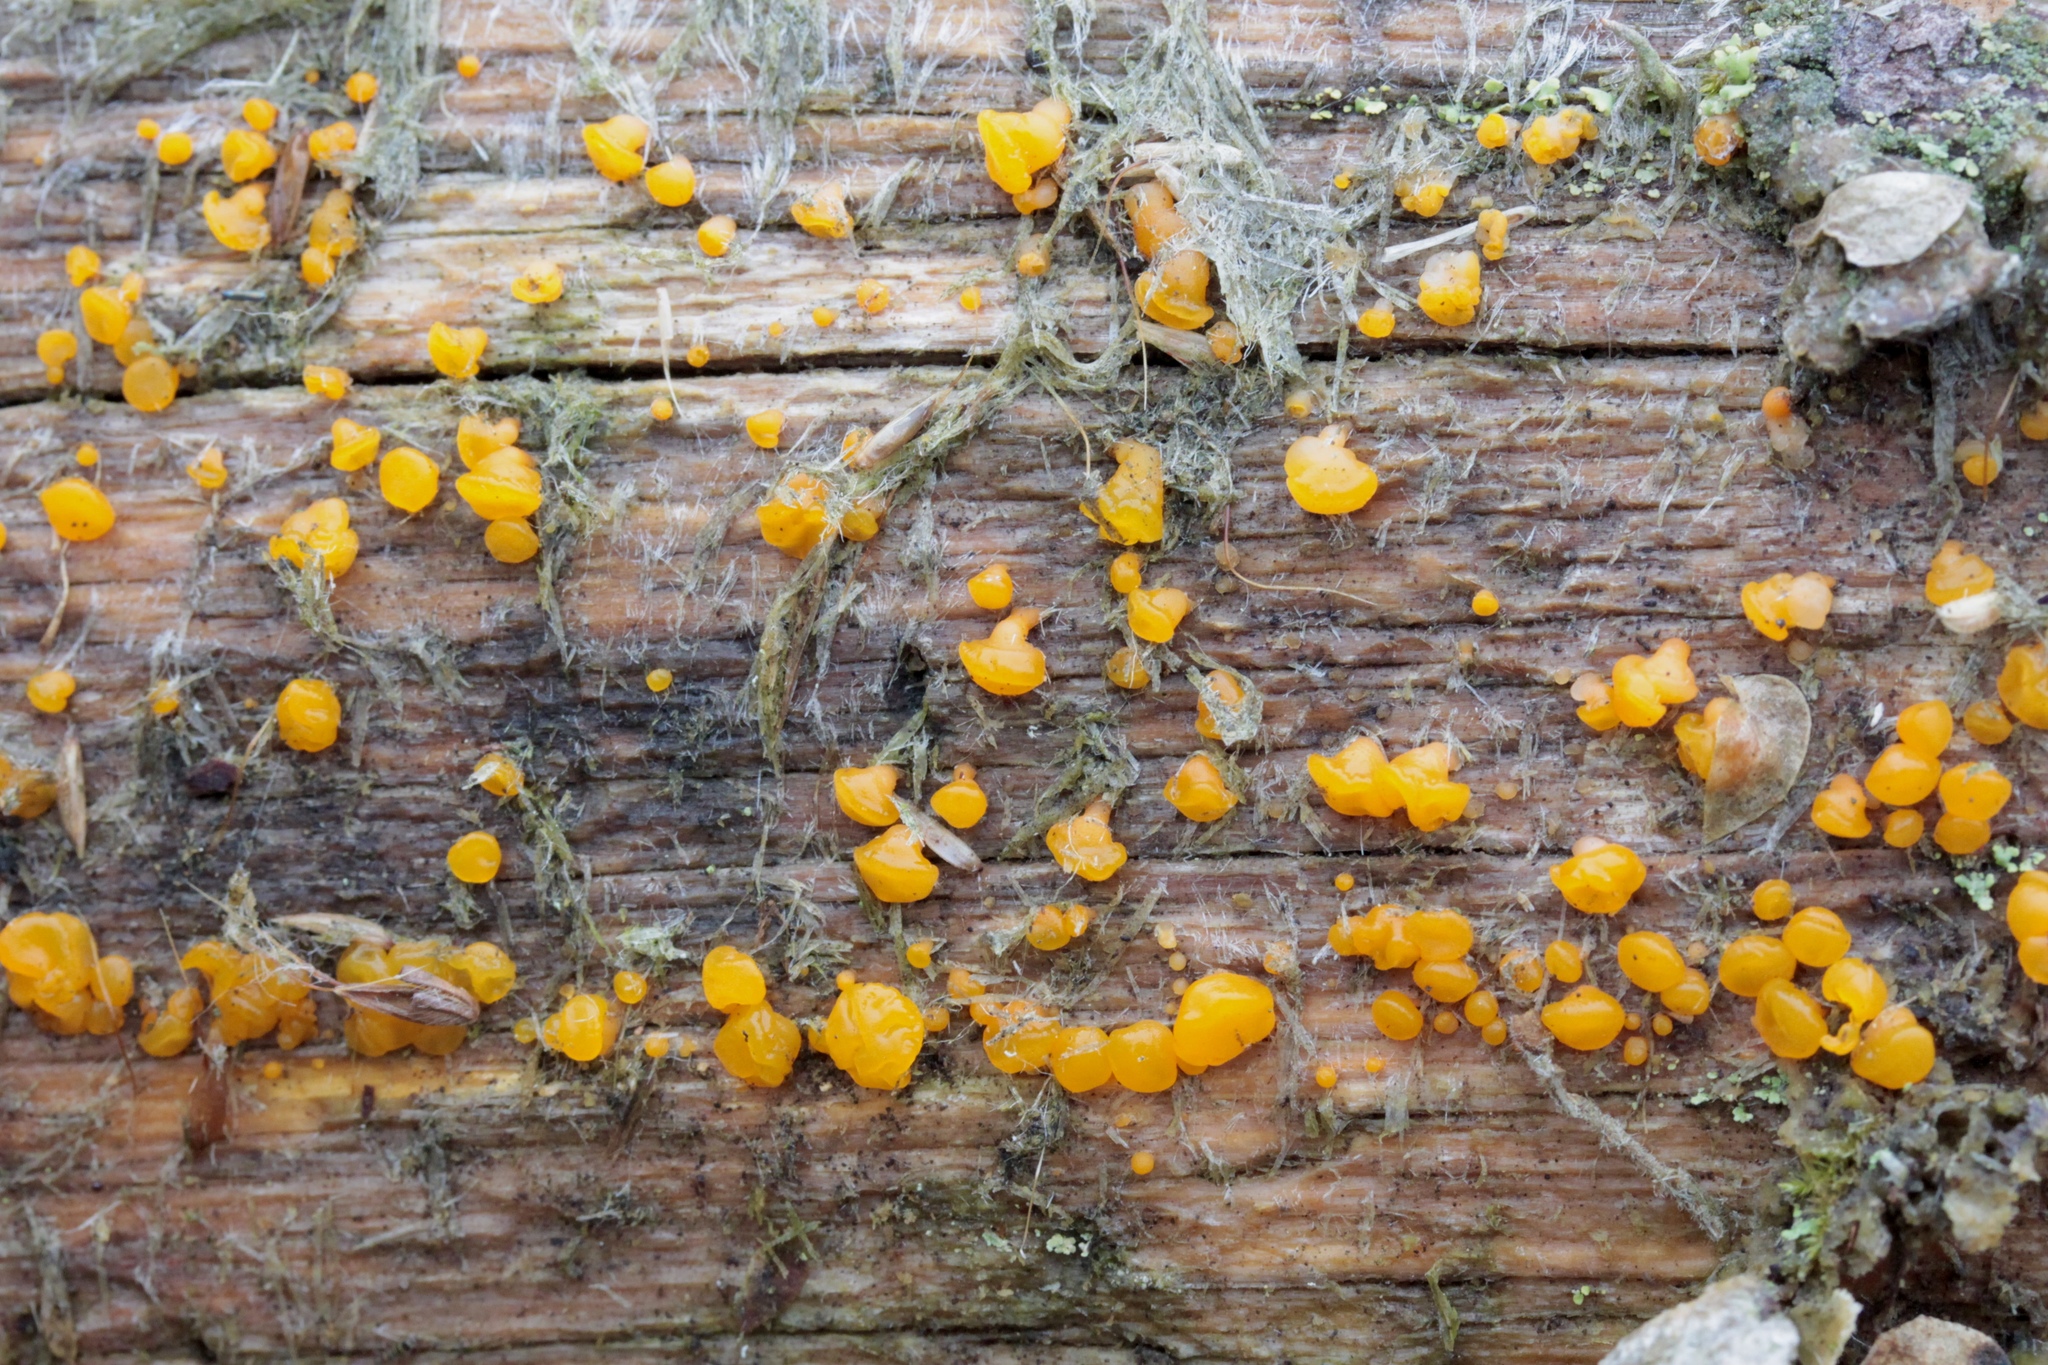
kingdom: Fungi
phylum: Basidiomycota
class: Dacrymycetes
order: Dacrymycetales
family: Dacrymycetaceae
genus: Dacrymyces
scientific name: Dacrymyces capitatus
